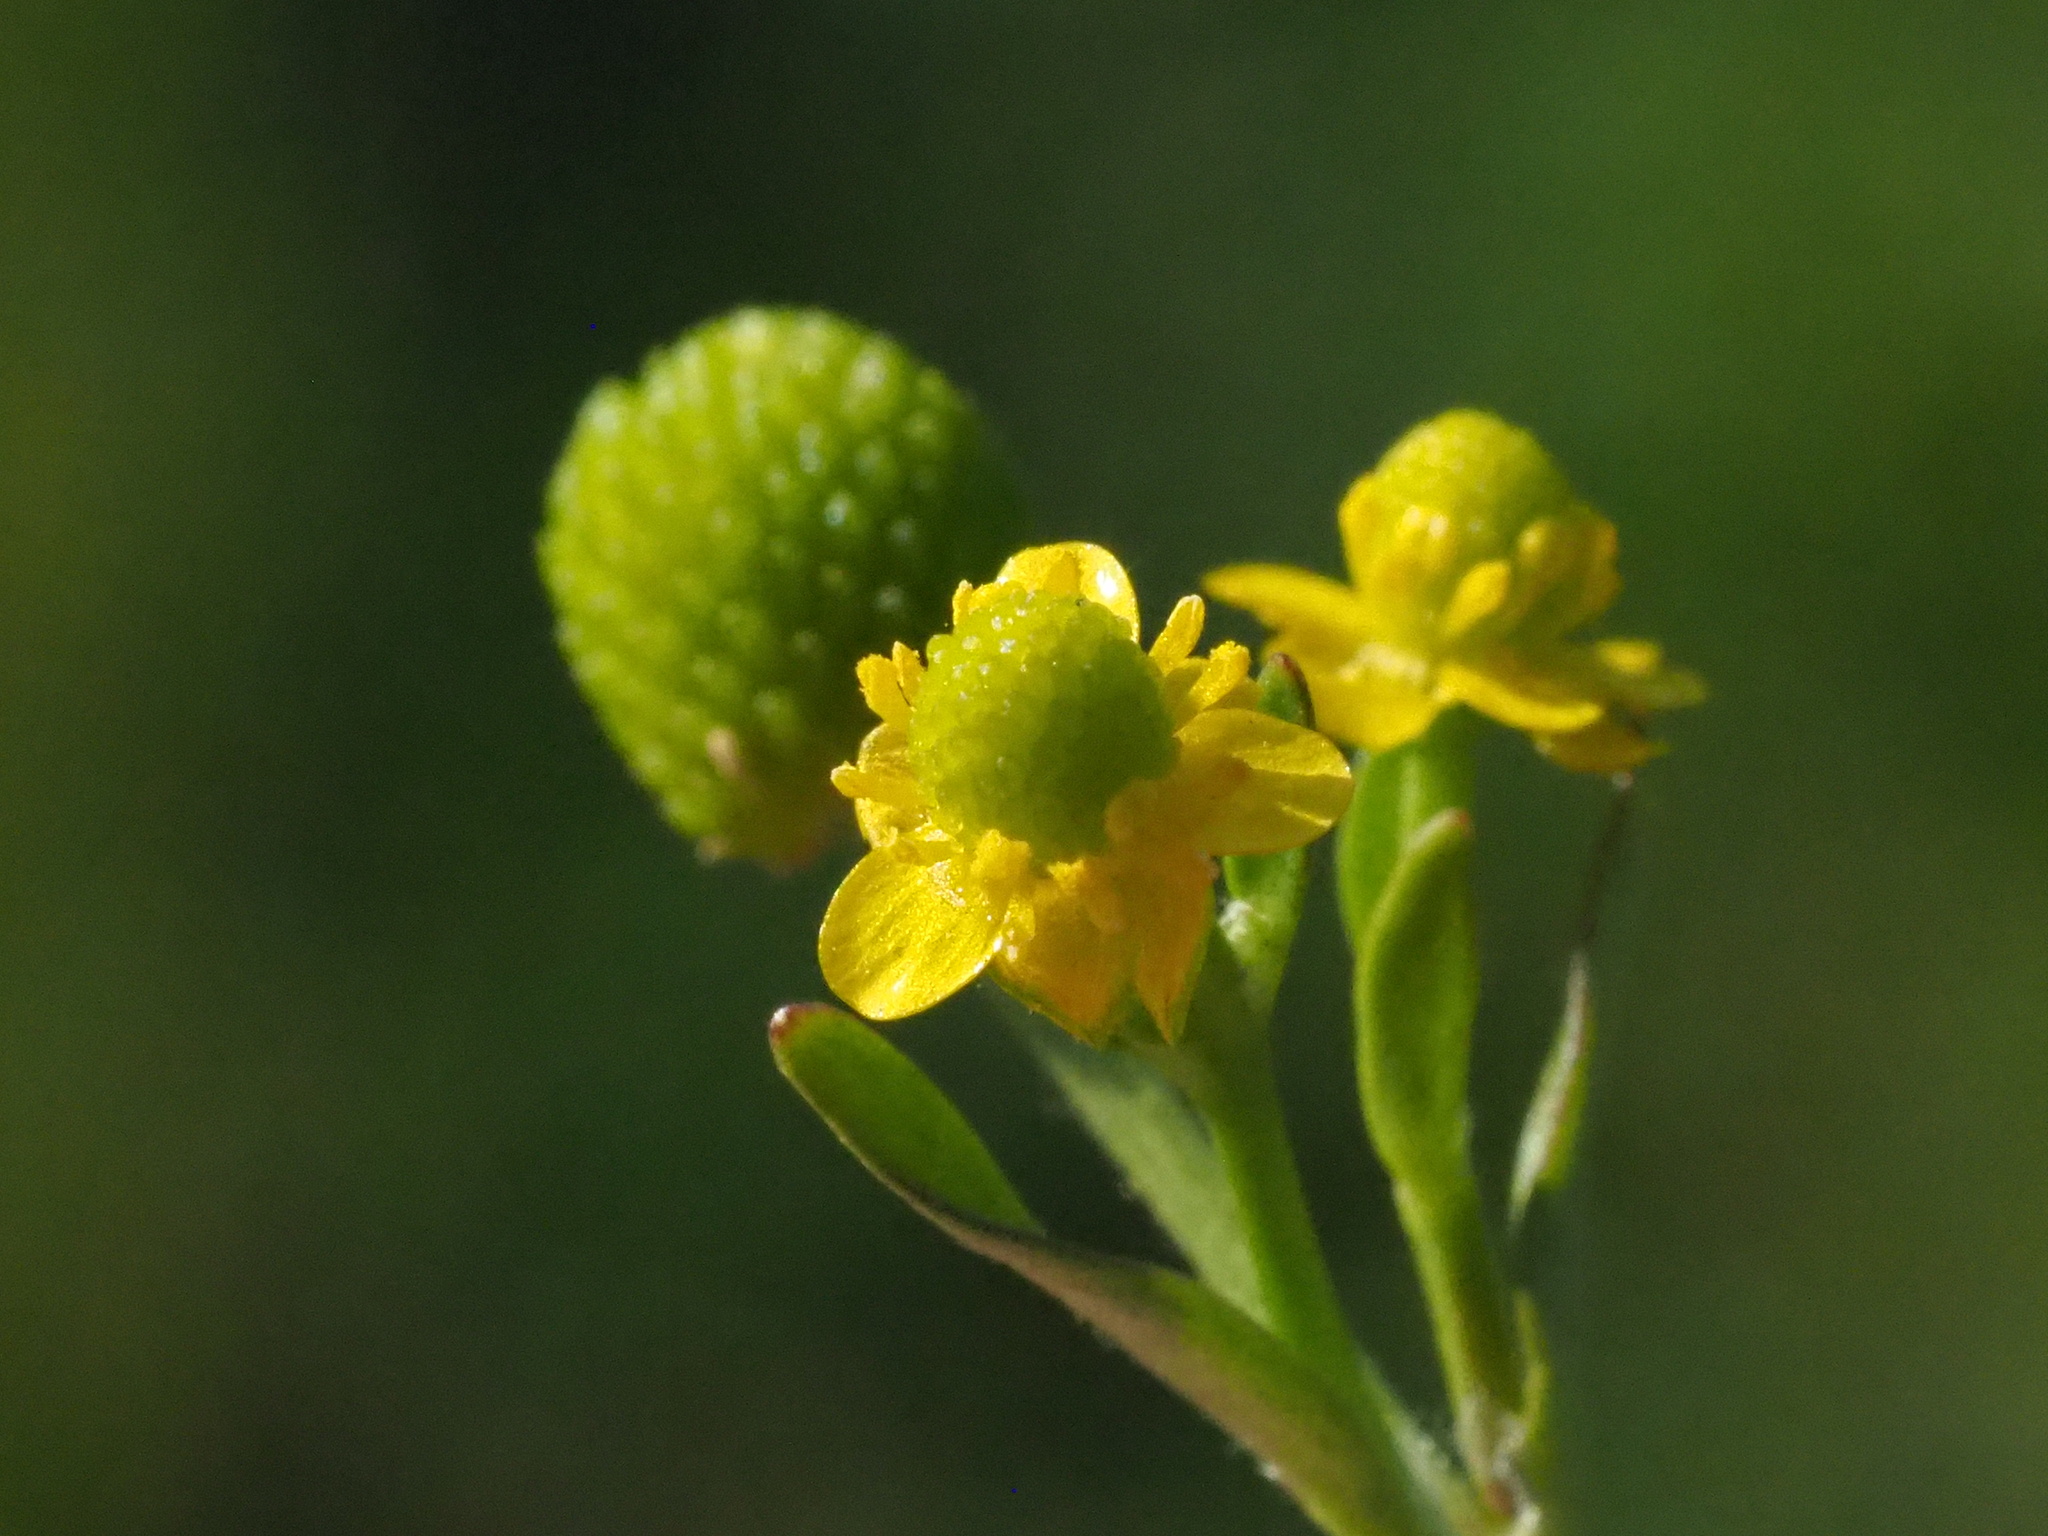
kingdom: Plantae
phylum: Tracheophyta
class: Magnoliopsida
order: Ranunculales
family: Ranunculaceae
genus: Ranunculus
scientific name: Ranunculus sceleratus
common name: Celery-leaved buttercup
